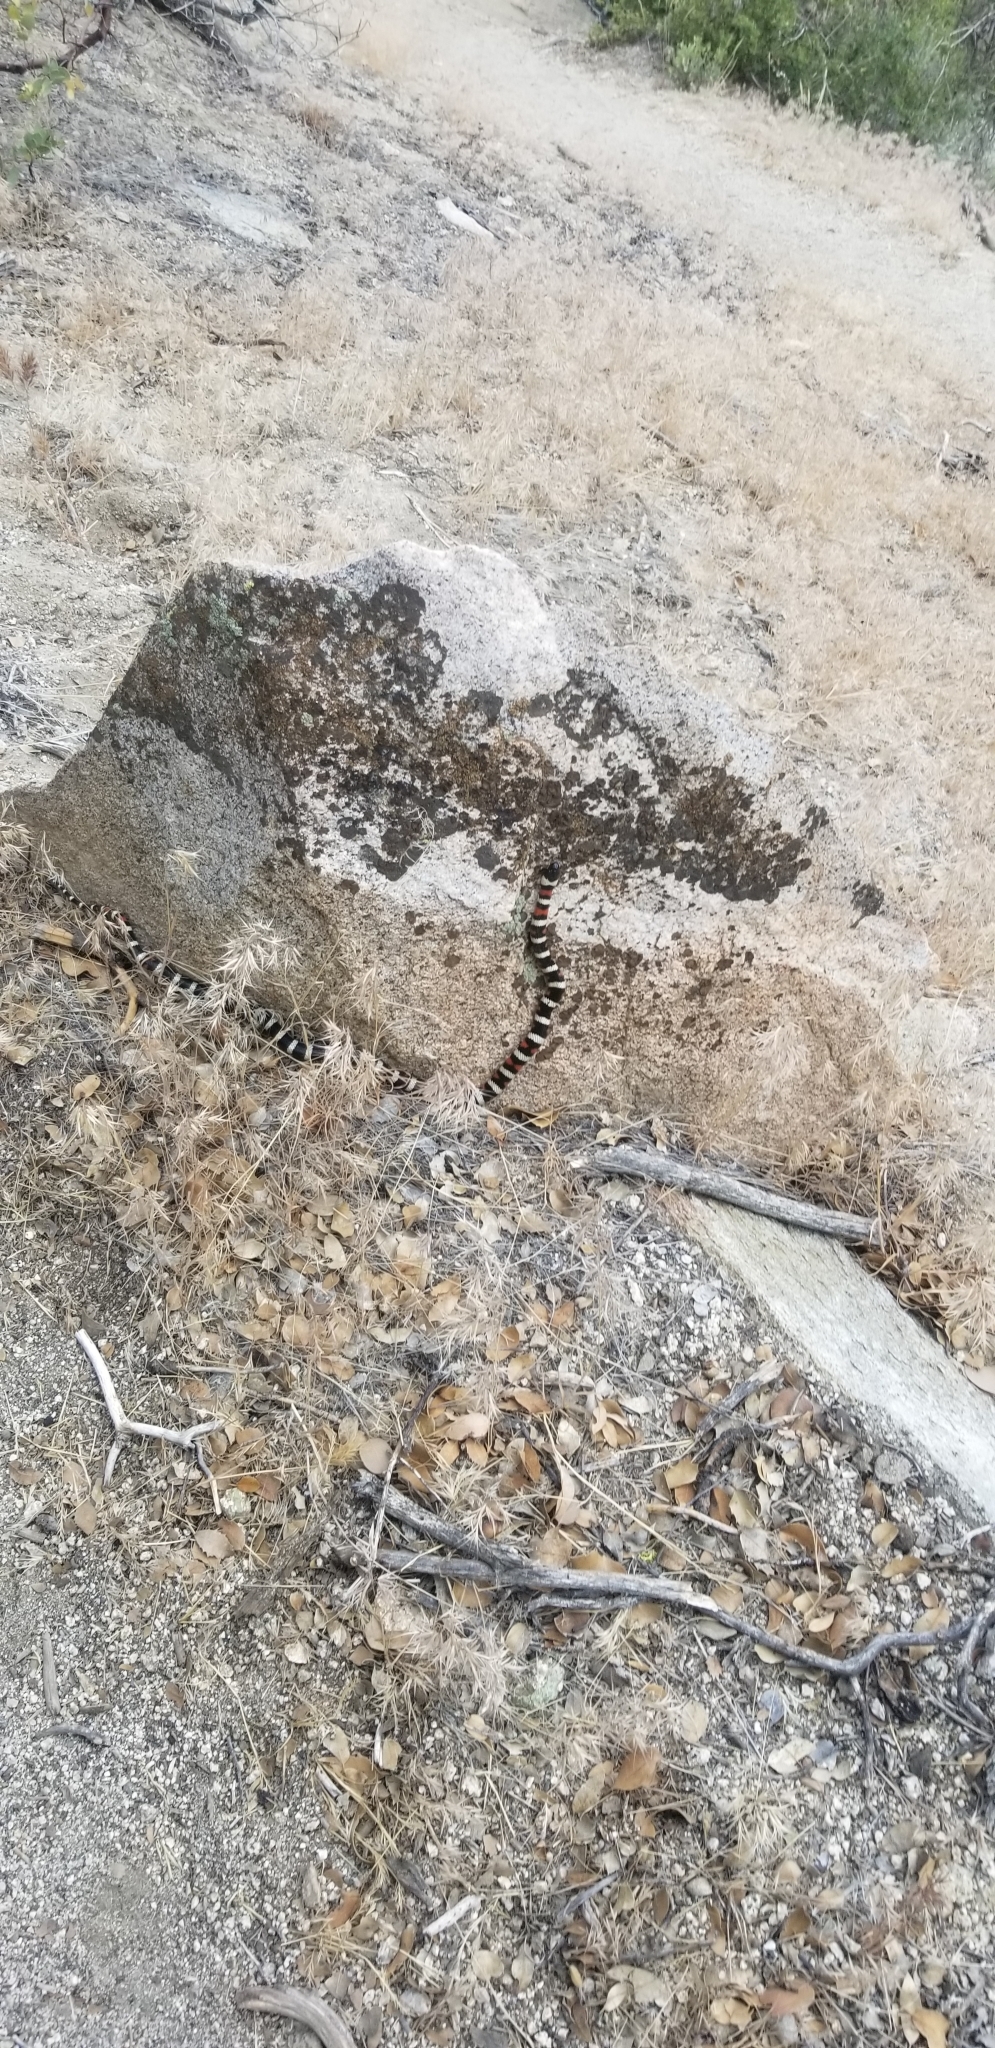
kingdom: Animalia
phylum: Chordata
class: Squamata
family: Colubridae
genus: Lampropeltis
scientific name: Lampropeltis zonata
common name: California mountain kingsnake
